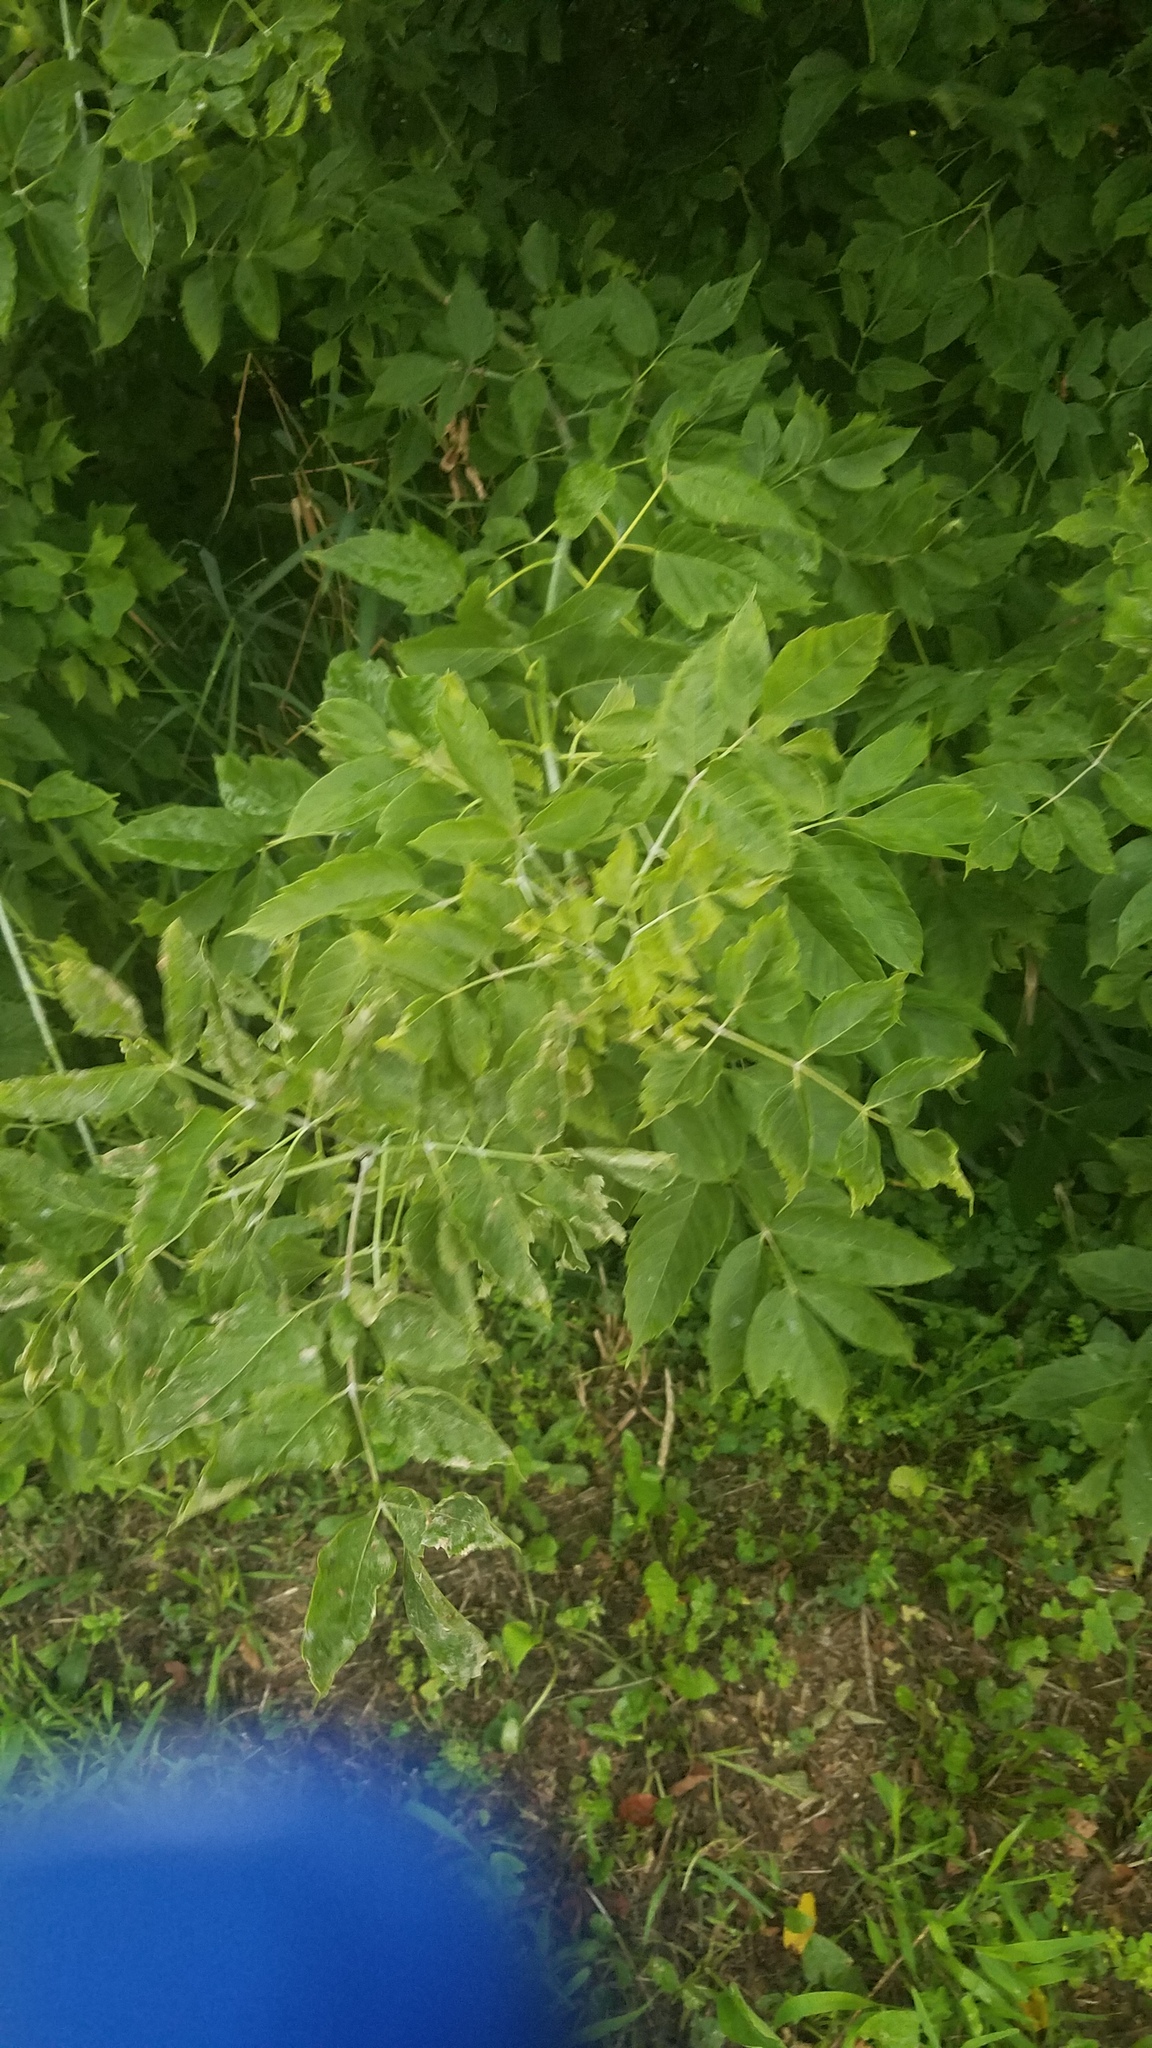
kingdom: Plantae
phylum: Tracheophyta
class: Magnoliopsida
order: Sapindales
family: Sapindaceae
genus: Acer
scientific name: Acer negundo
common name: Ashleaf maple
